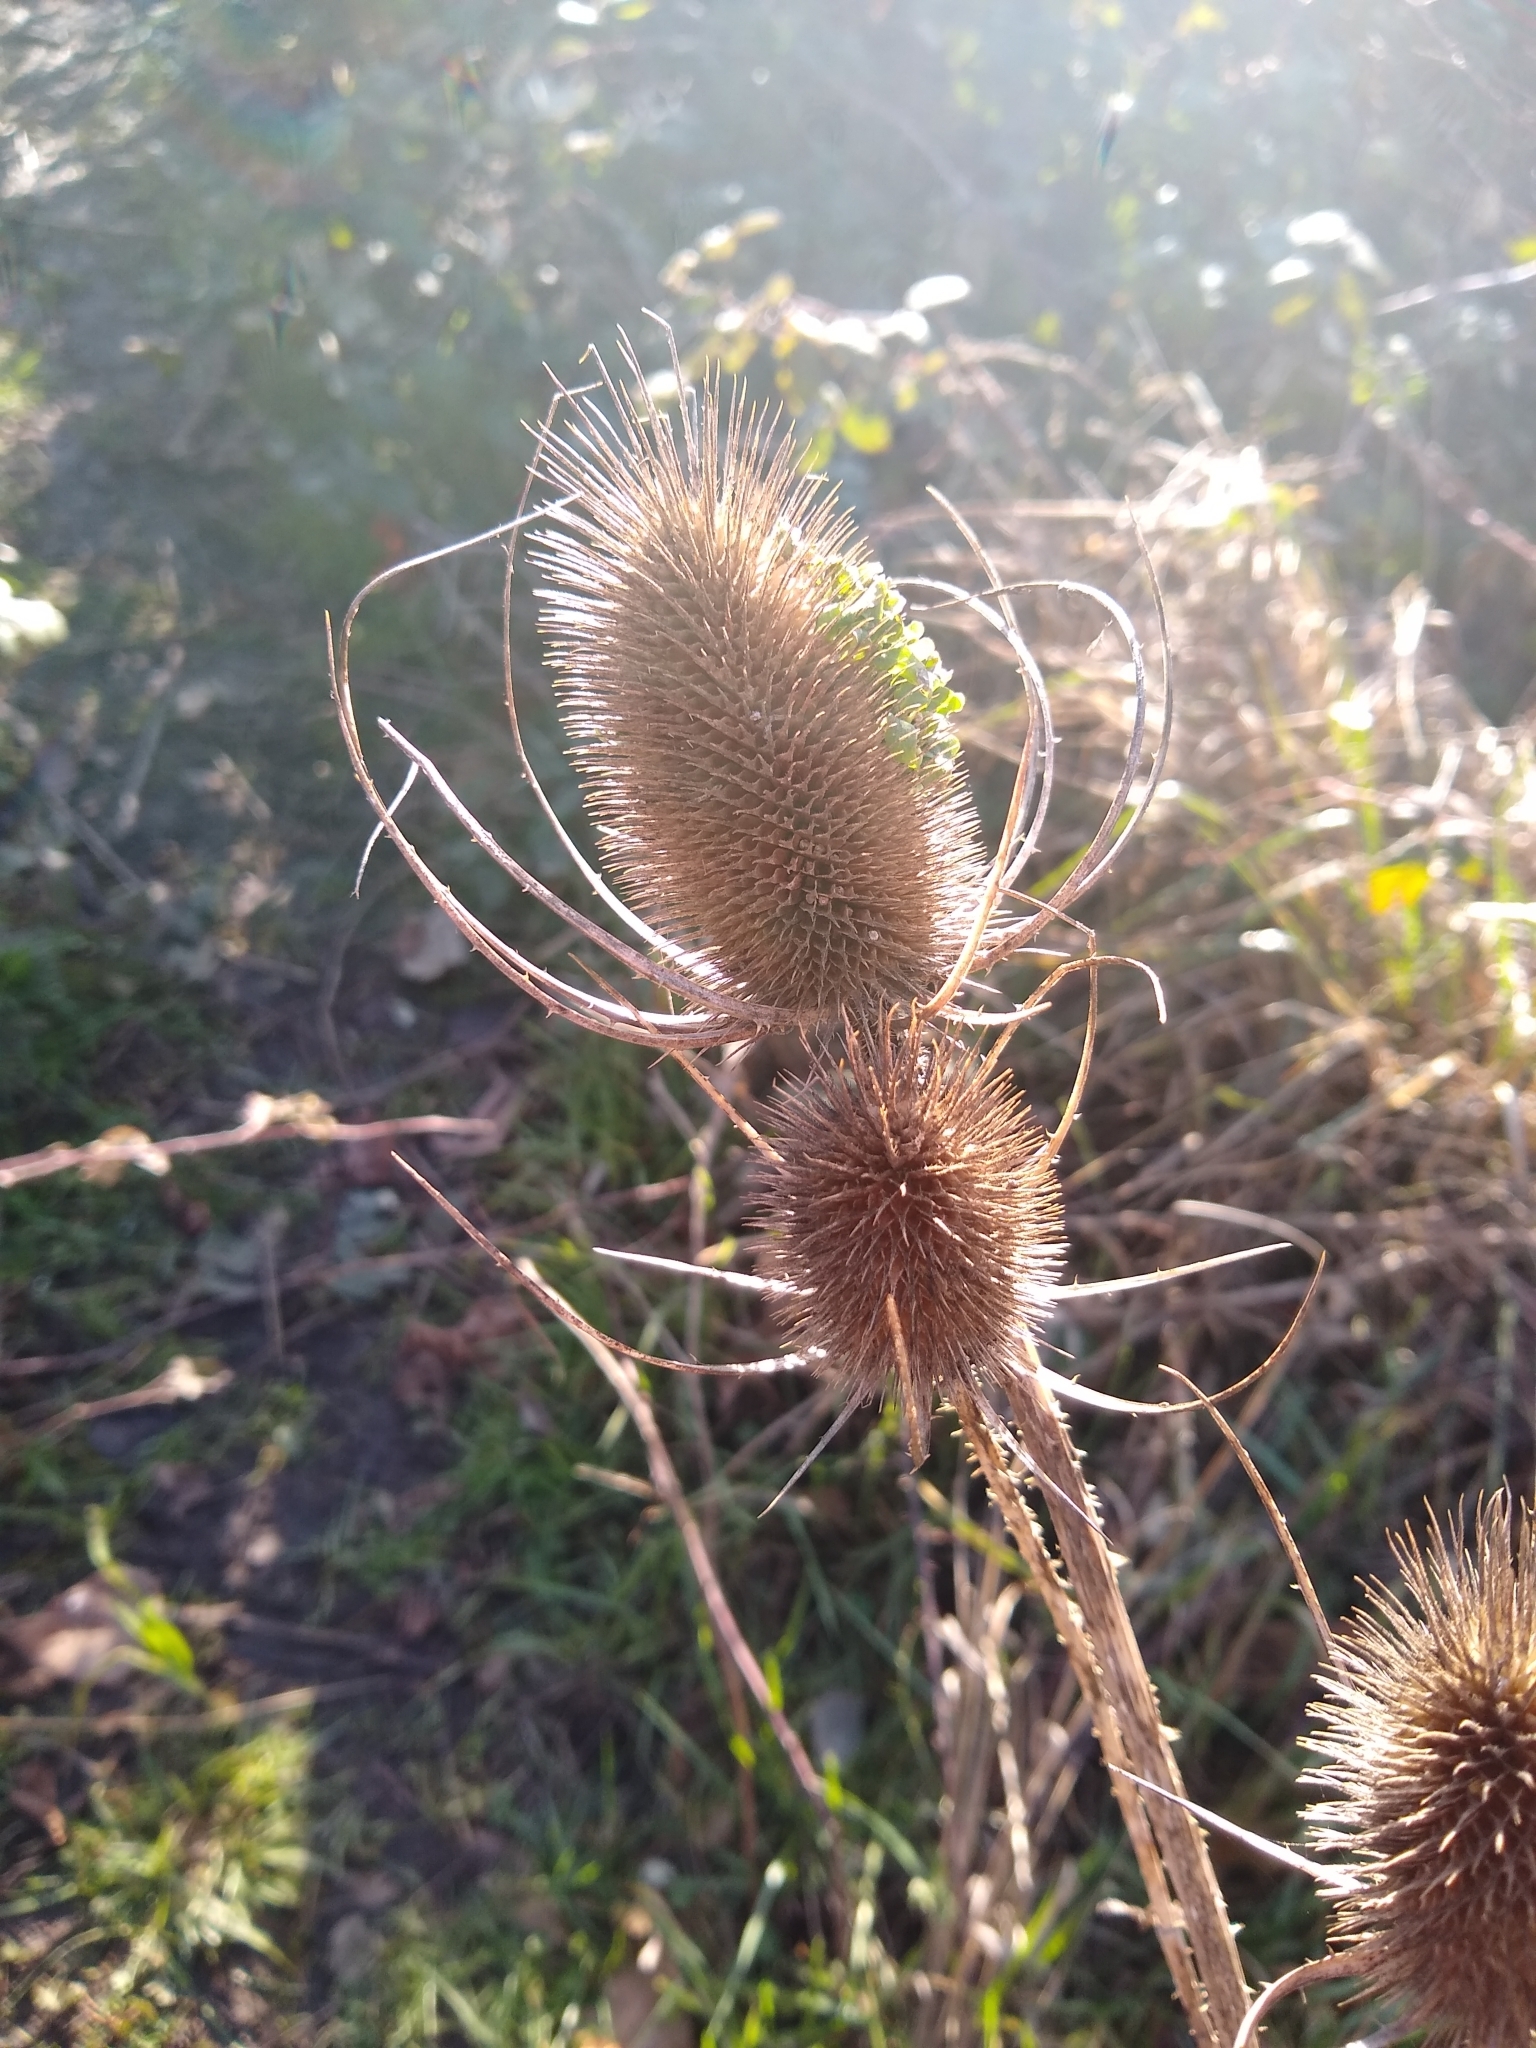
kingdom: Plantae
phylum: Tracheophyta
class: Magnoliopsida
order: Dipsacales
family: Caprifoliaceae
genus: Dipsacus
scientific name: Dipsacus fullonum
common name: Teasel
